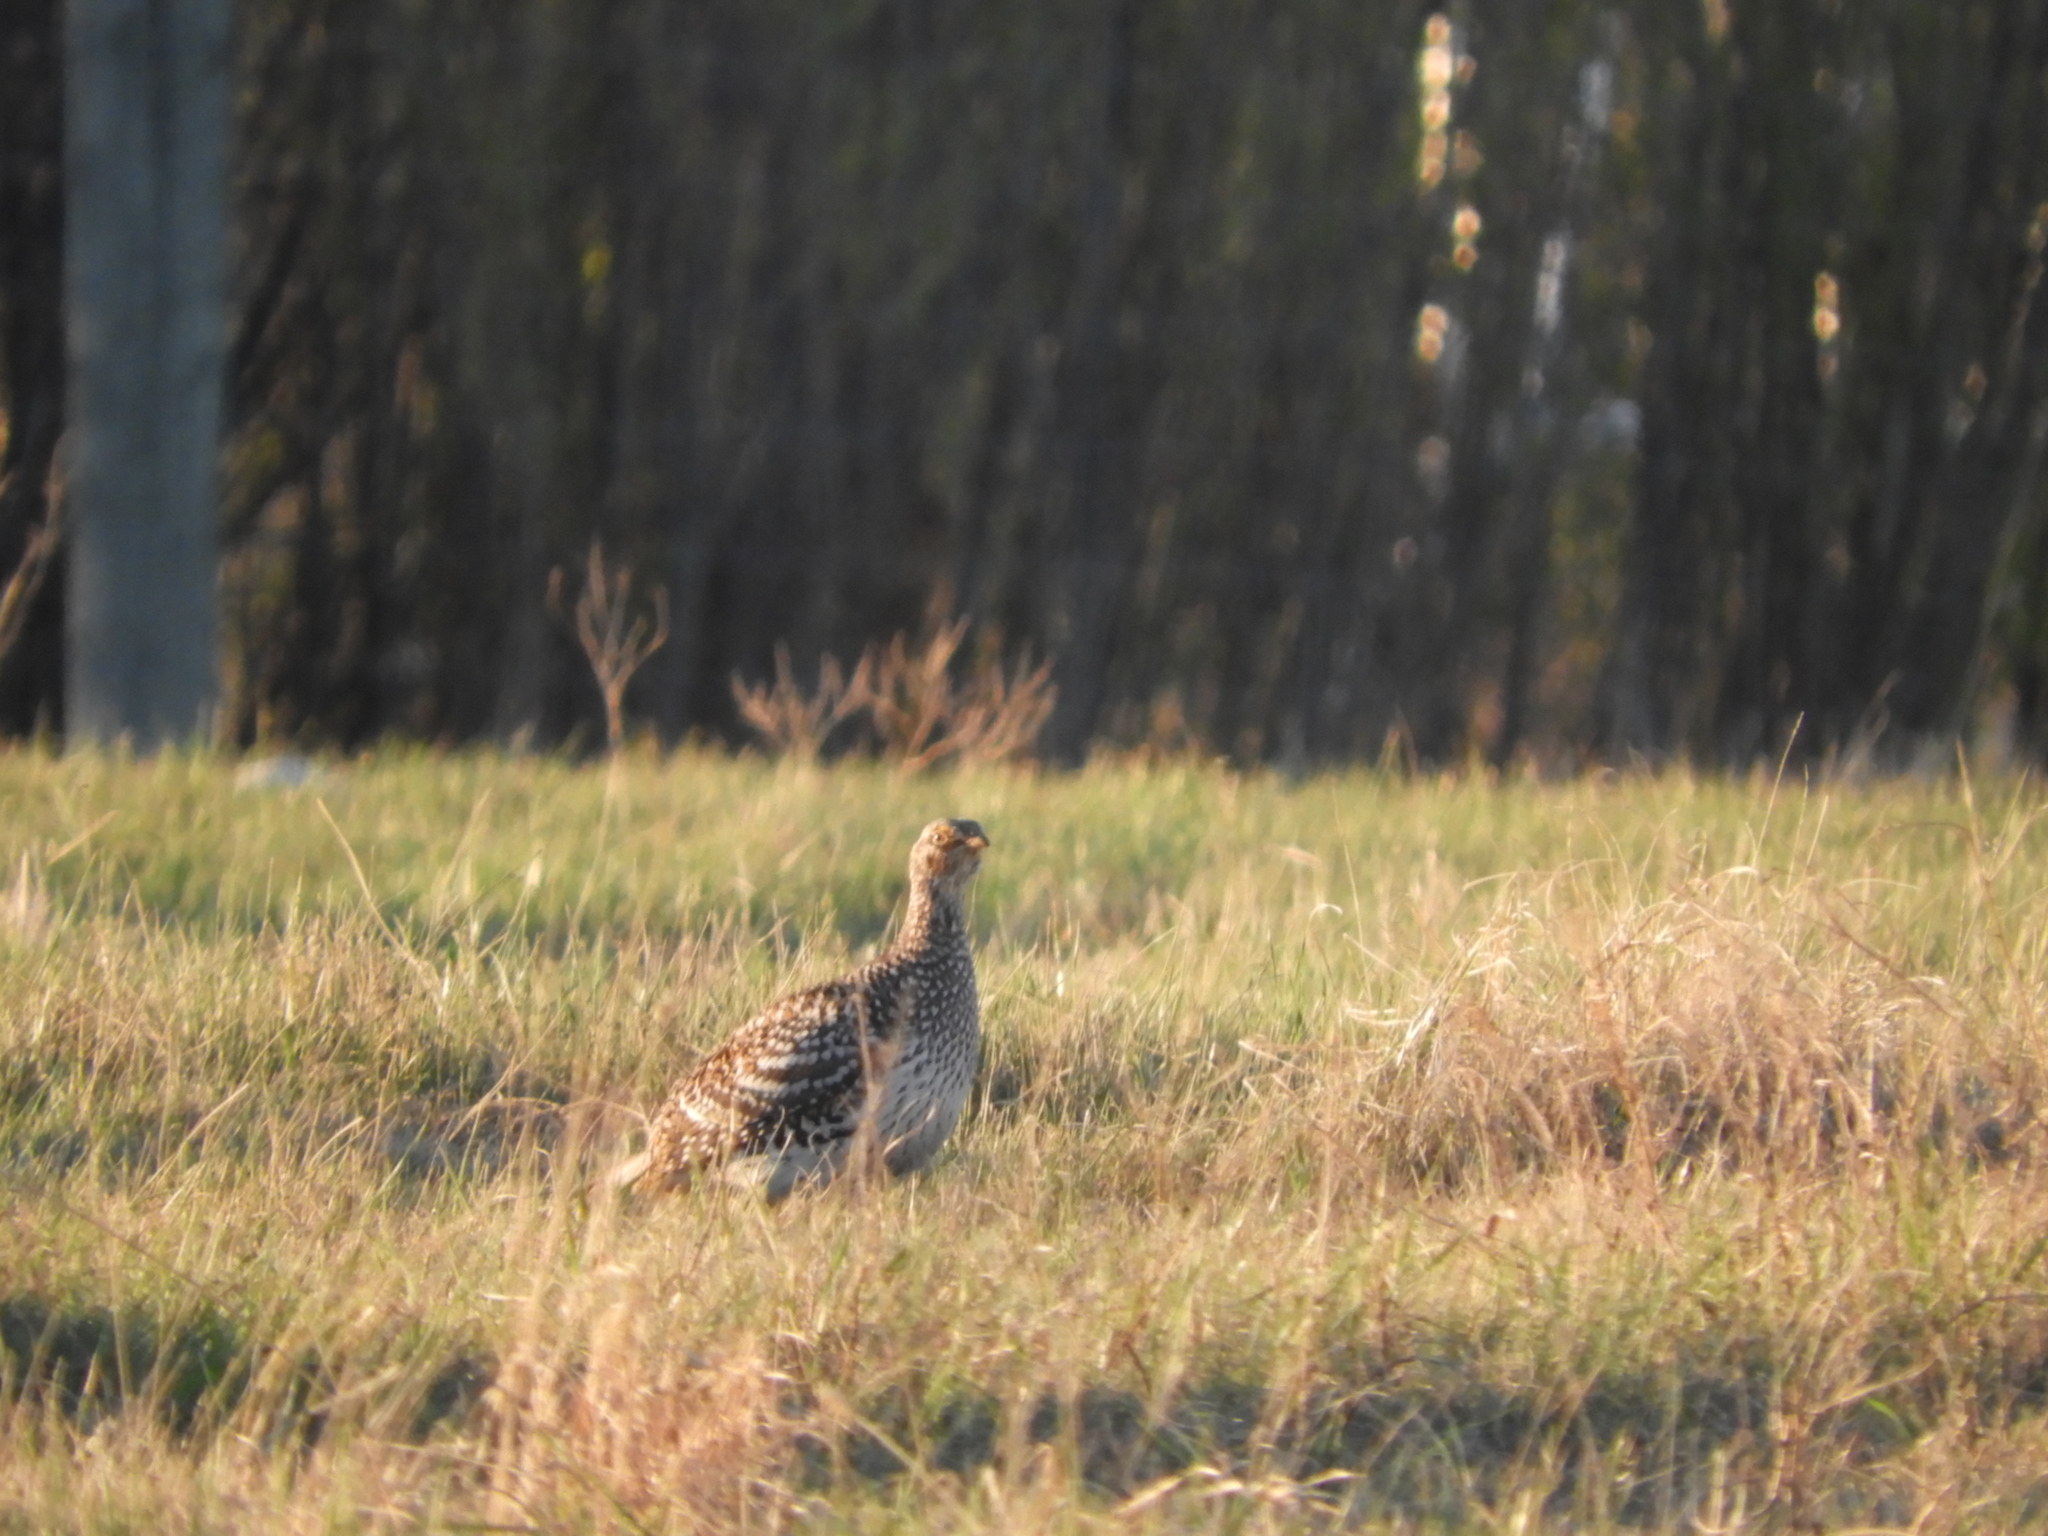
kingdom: Animalia
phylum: Chordata
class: Aves
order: Galliformes
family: Phasianidae
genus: Tympanuchus
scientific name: Tympanuchus phasianellus
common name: Sharp-tailed grouse
